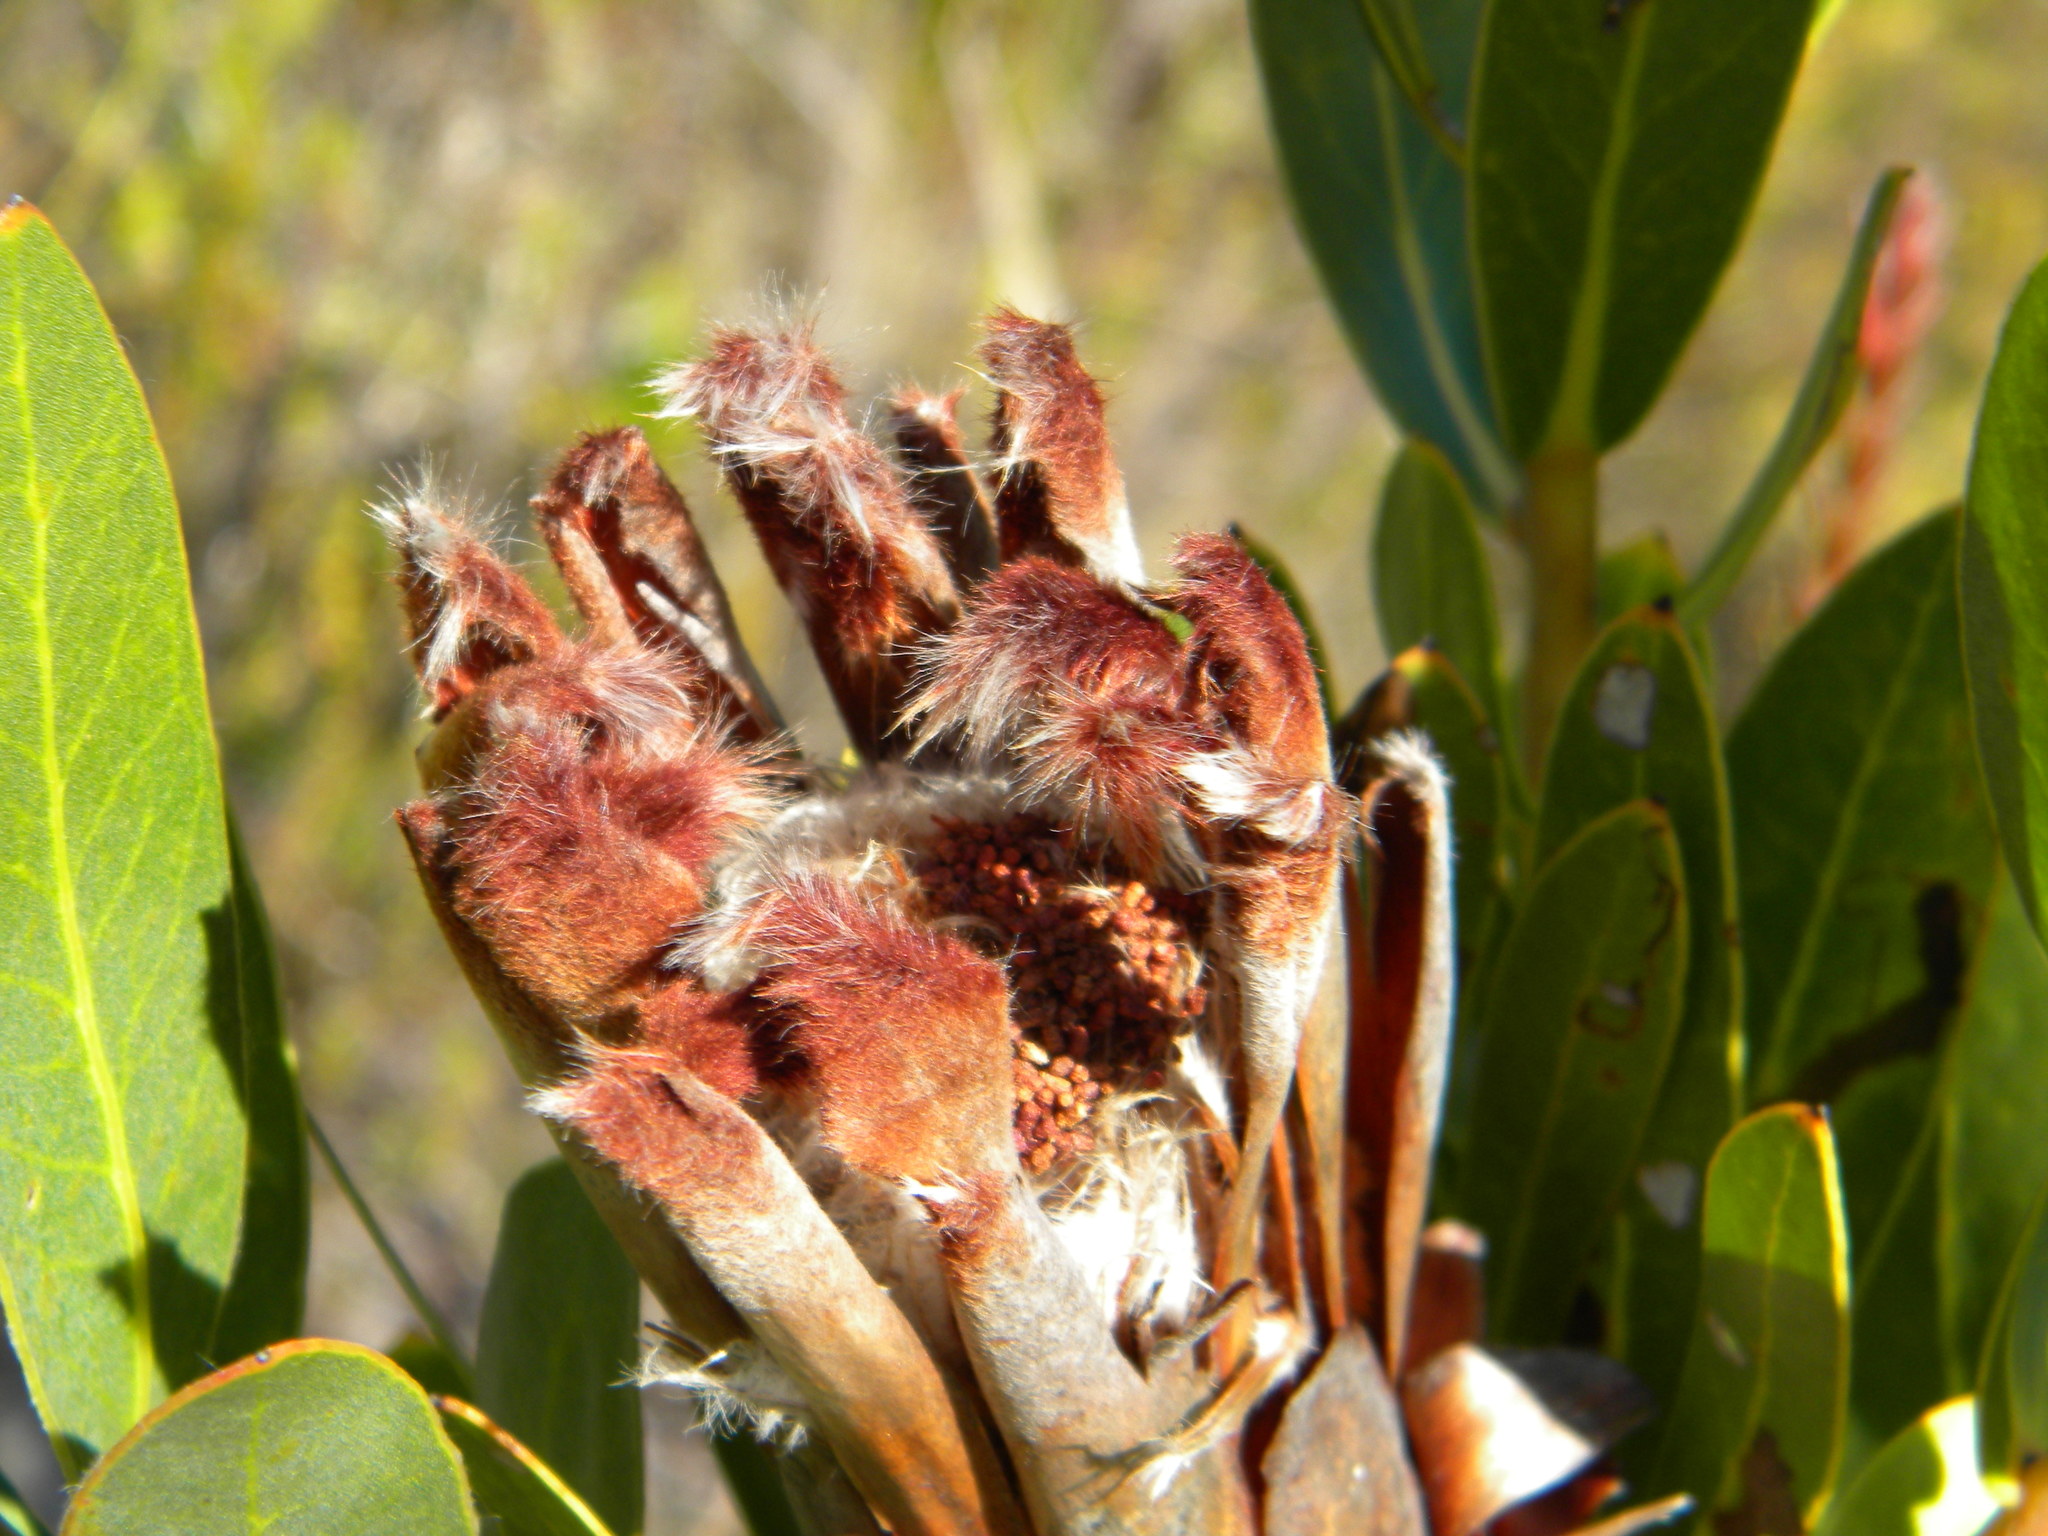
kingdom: Plantae
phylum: Tracheophyta
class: Magnoliopsida
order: Proteales
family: Proteaceae
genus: Protea
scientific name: Protea lepidocarpodendron
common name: Black-bearded protea
